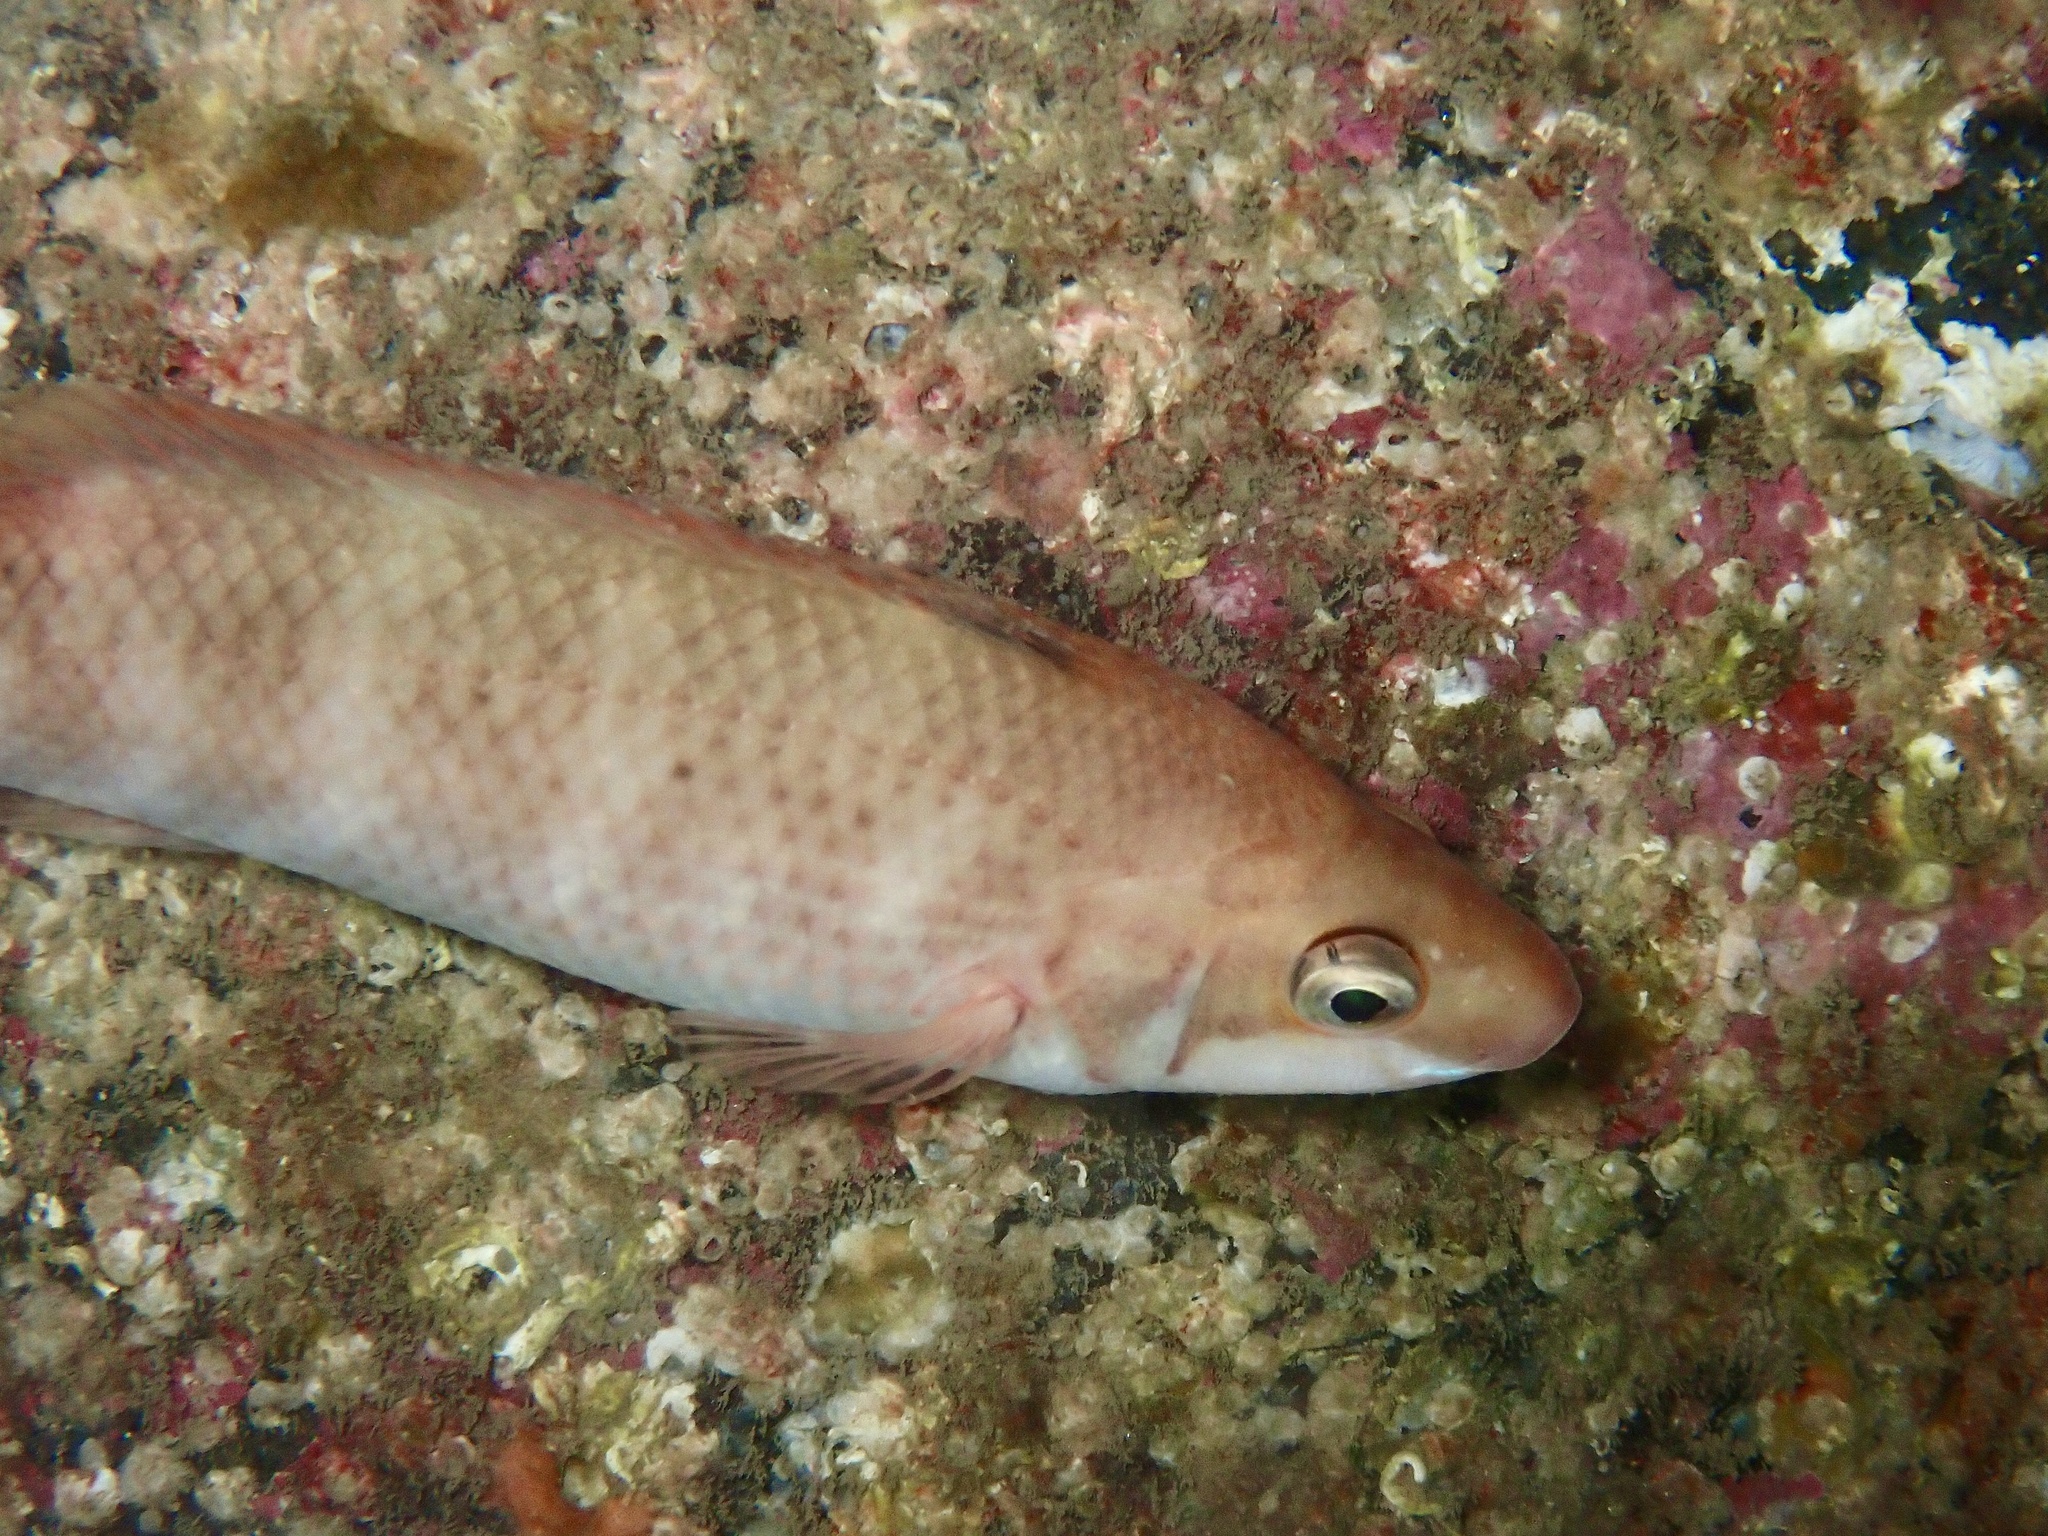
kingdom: Animalia
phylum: Chordata
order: Perciformes
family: Labridae
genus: Ctenolabrus
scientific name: Ctenolabrus rupestris
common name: Goldsinny
